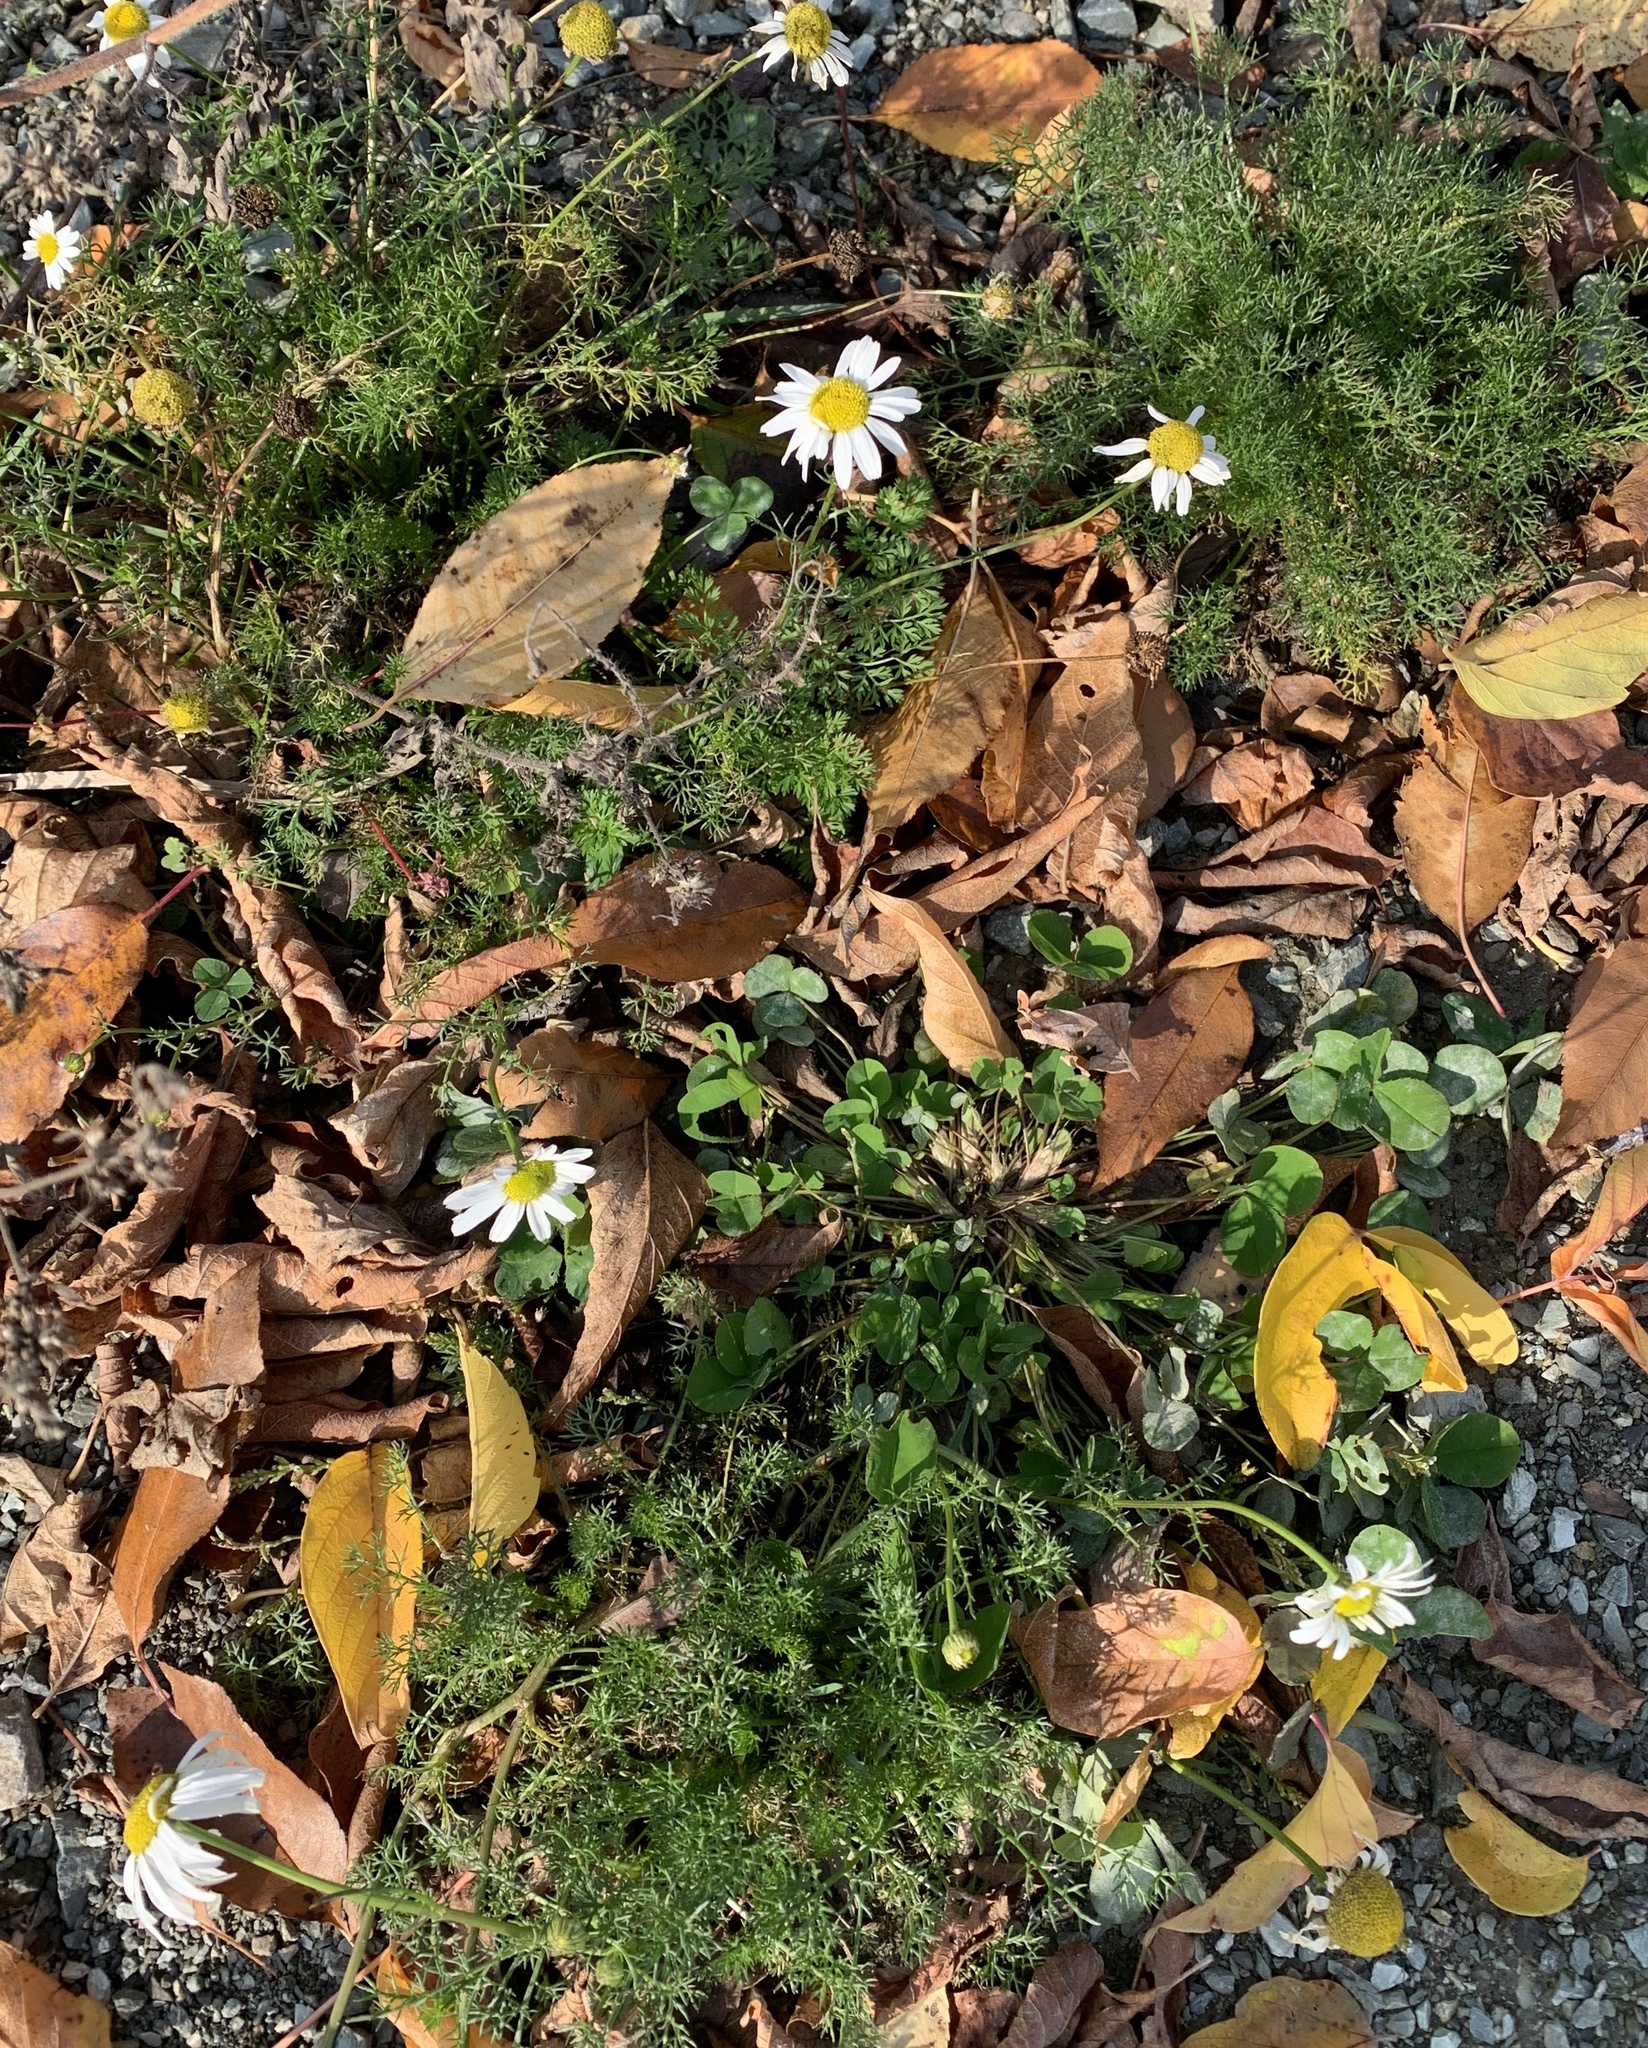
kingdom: Plantae
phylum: Tracheophyta
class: Magnoliopsida
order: Asterales
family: Asteraceae
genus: Tripleurospermum
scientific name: Tripleurospermum inodorum
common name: Scentless mayweed
